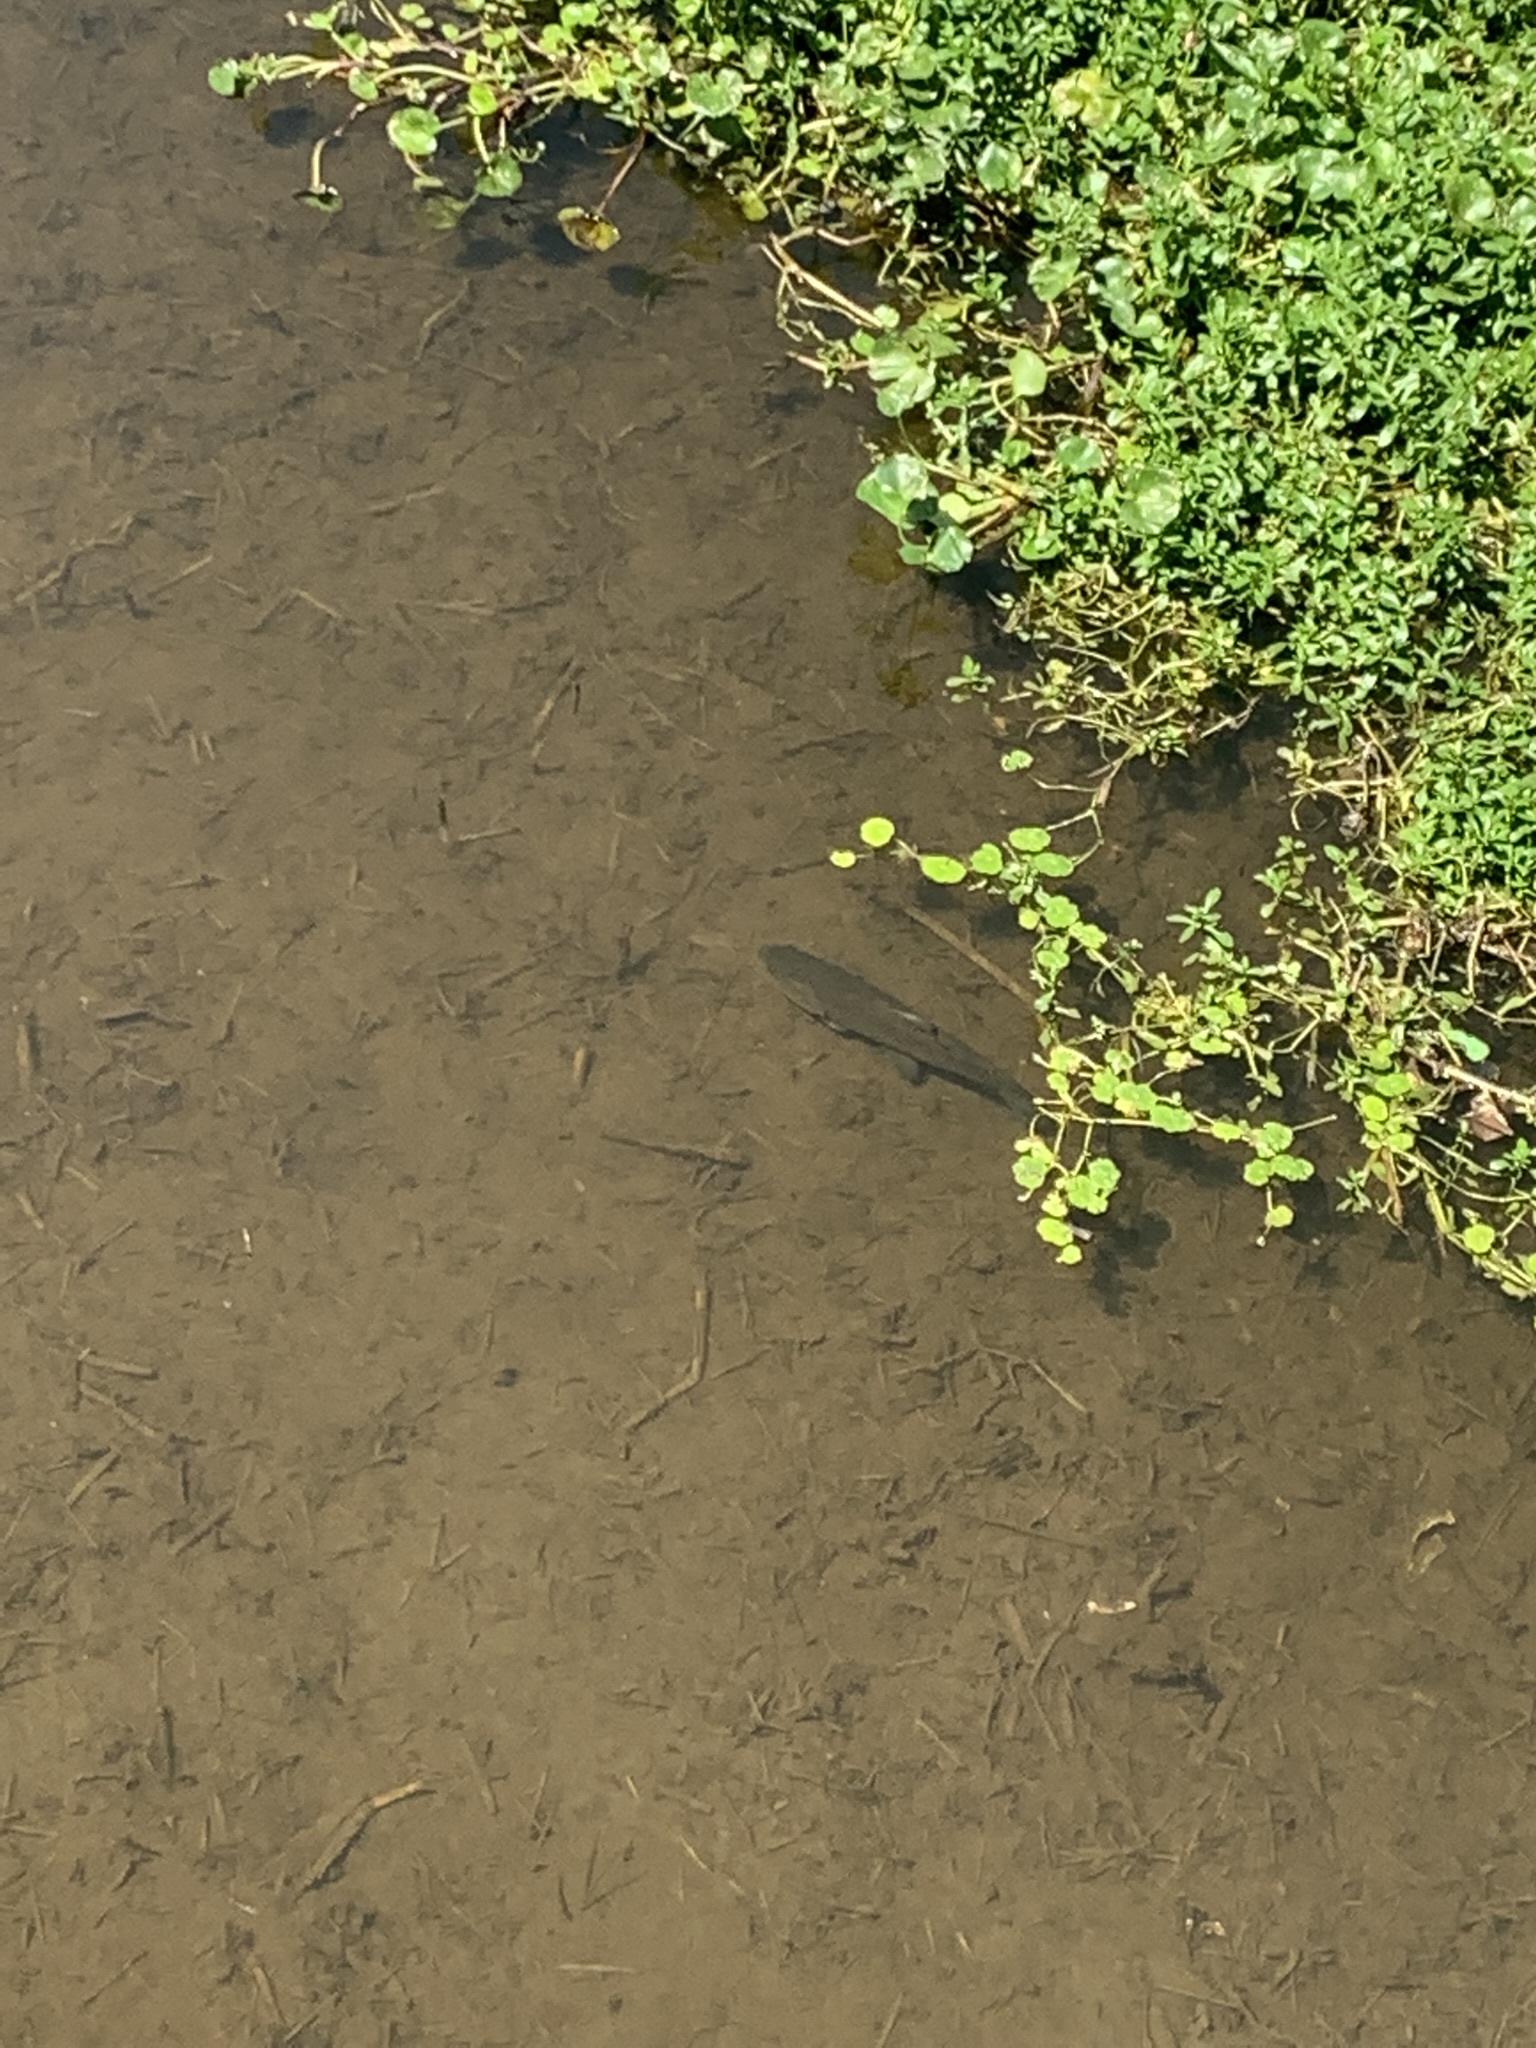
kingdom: Animalia
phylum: Chordata
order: Characiformes
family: Erythrinidae
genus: Hoplias
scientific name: Hoplias argentinensis
